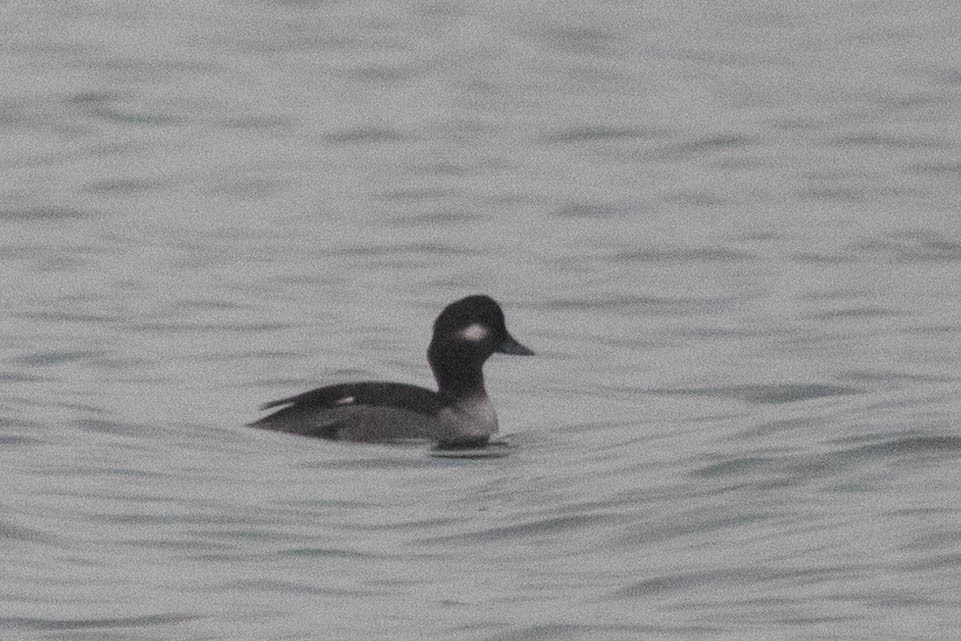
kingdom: Animalia
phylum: Chordata
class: Aves
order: Anseriformes
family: Anatidae
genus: Bucephala
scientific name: Bucephala albeola
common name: Bufflehead
